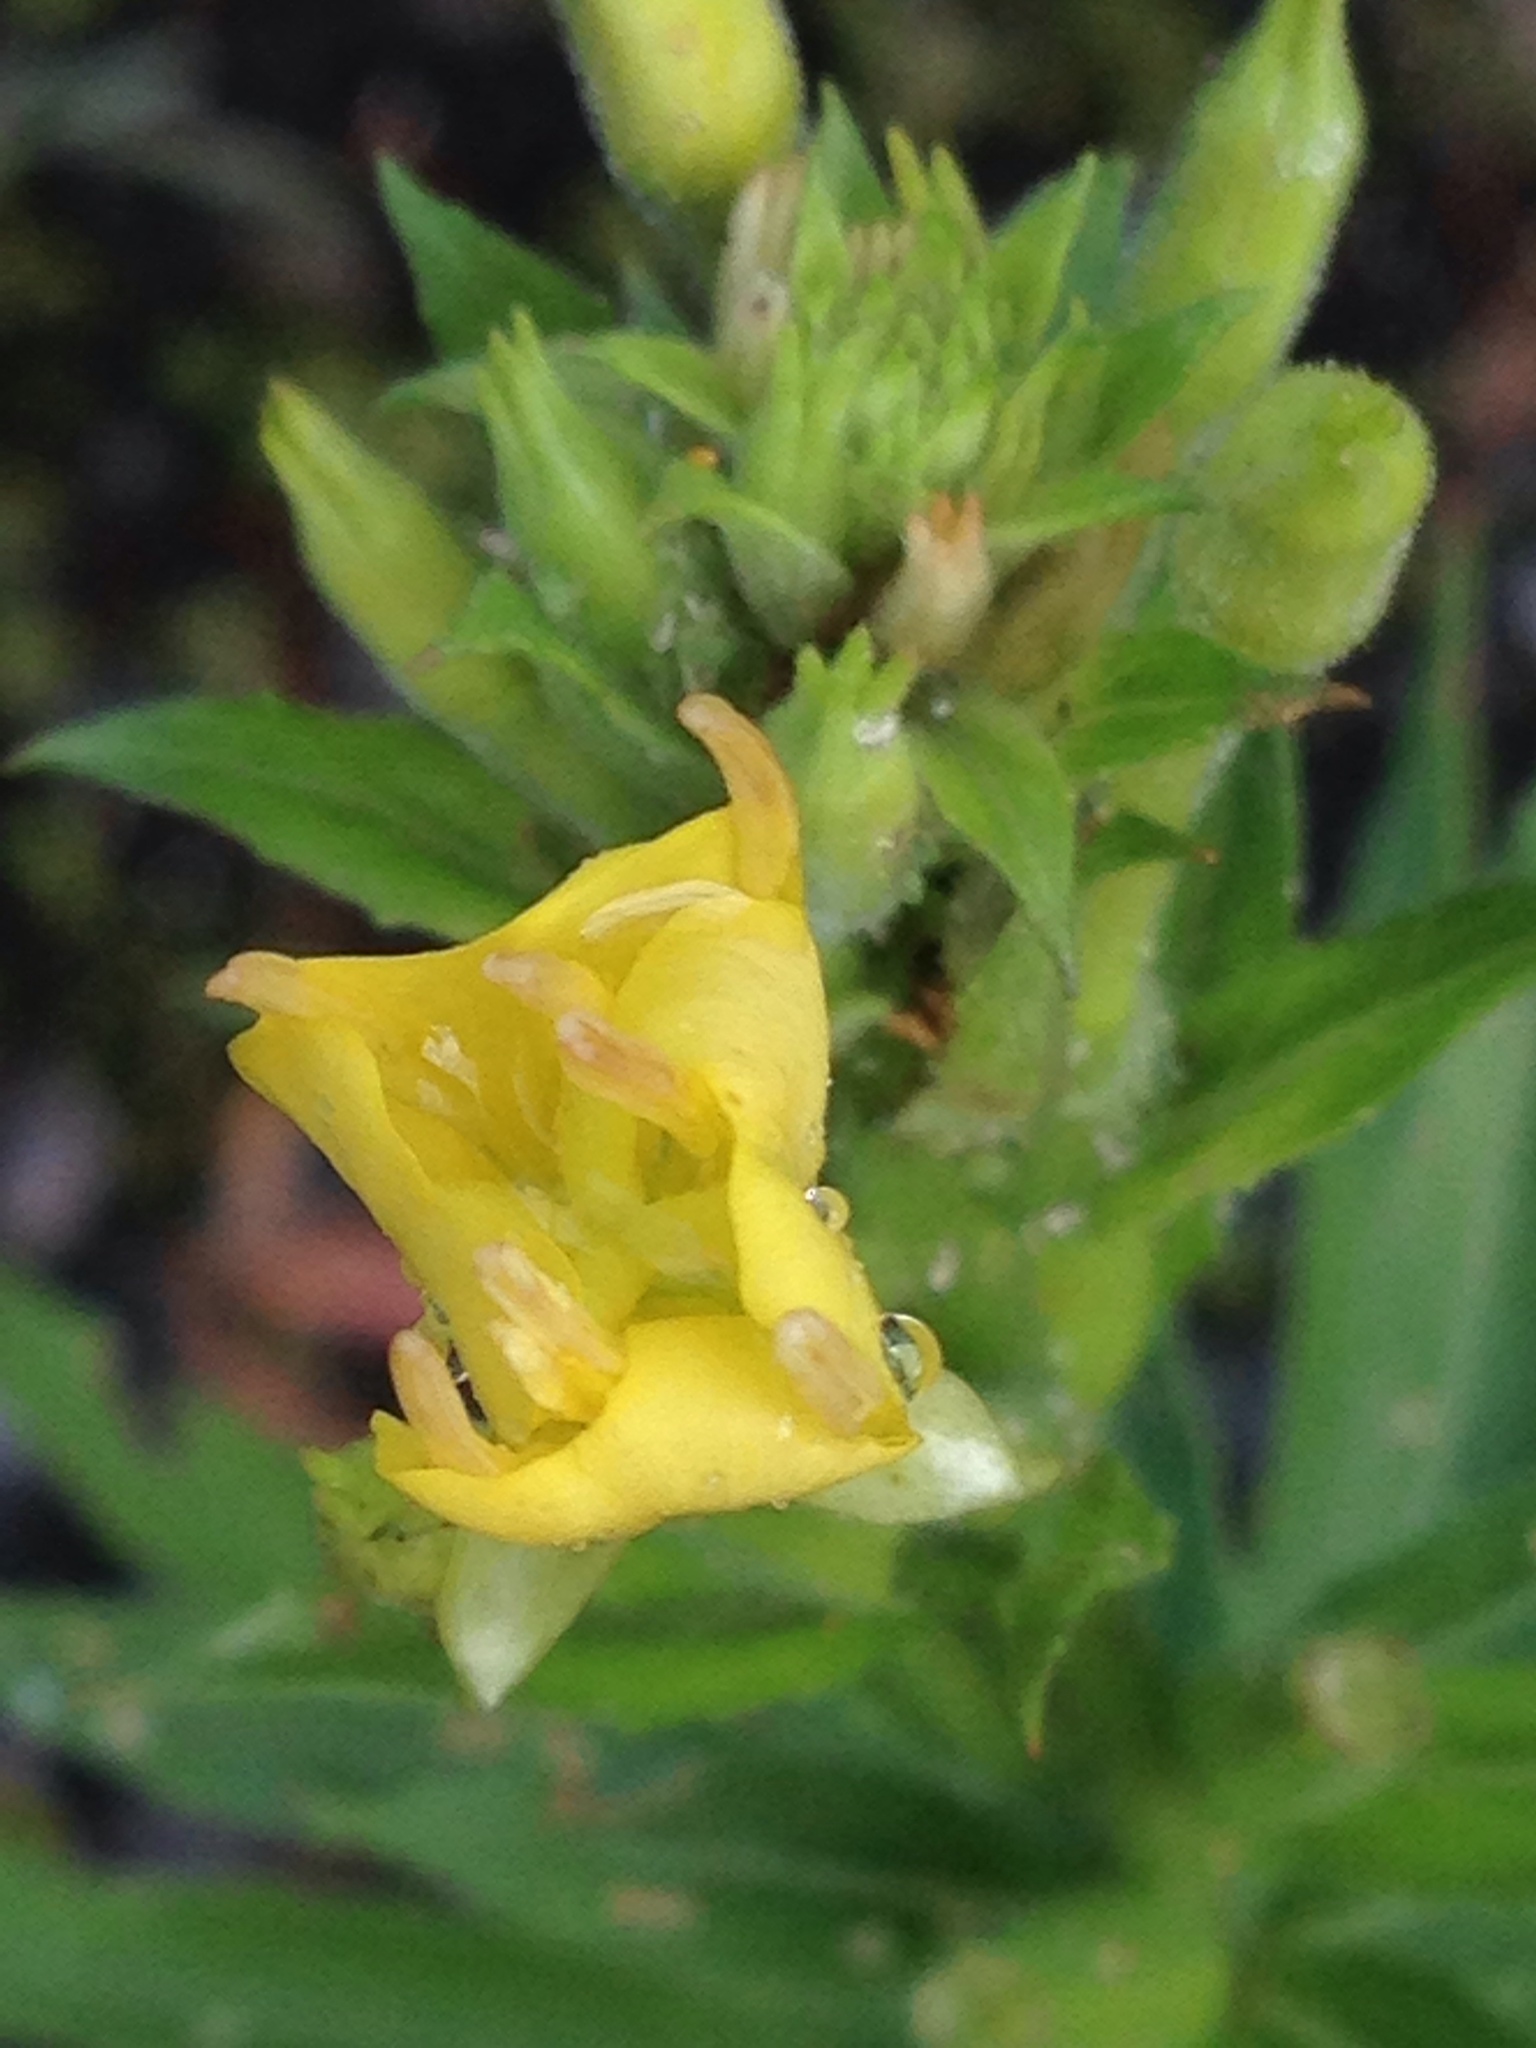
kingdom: Plantae
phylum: Tracheophyta
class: Magnoliopsida
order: Myrtales
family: Onagraceae
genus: Oenothera
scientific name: Oenothera biennis
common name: Common evening-primrose
